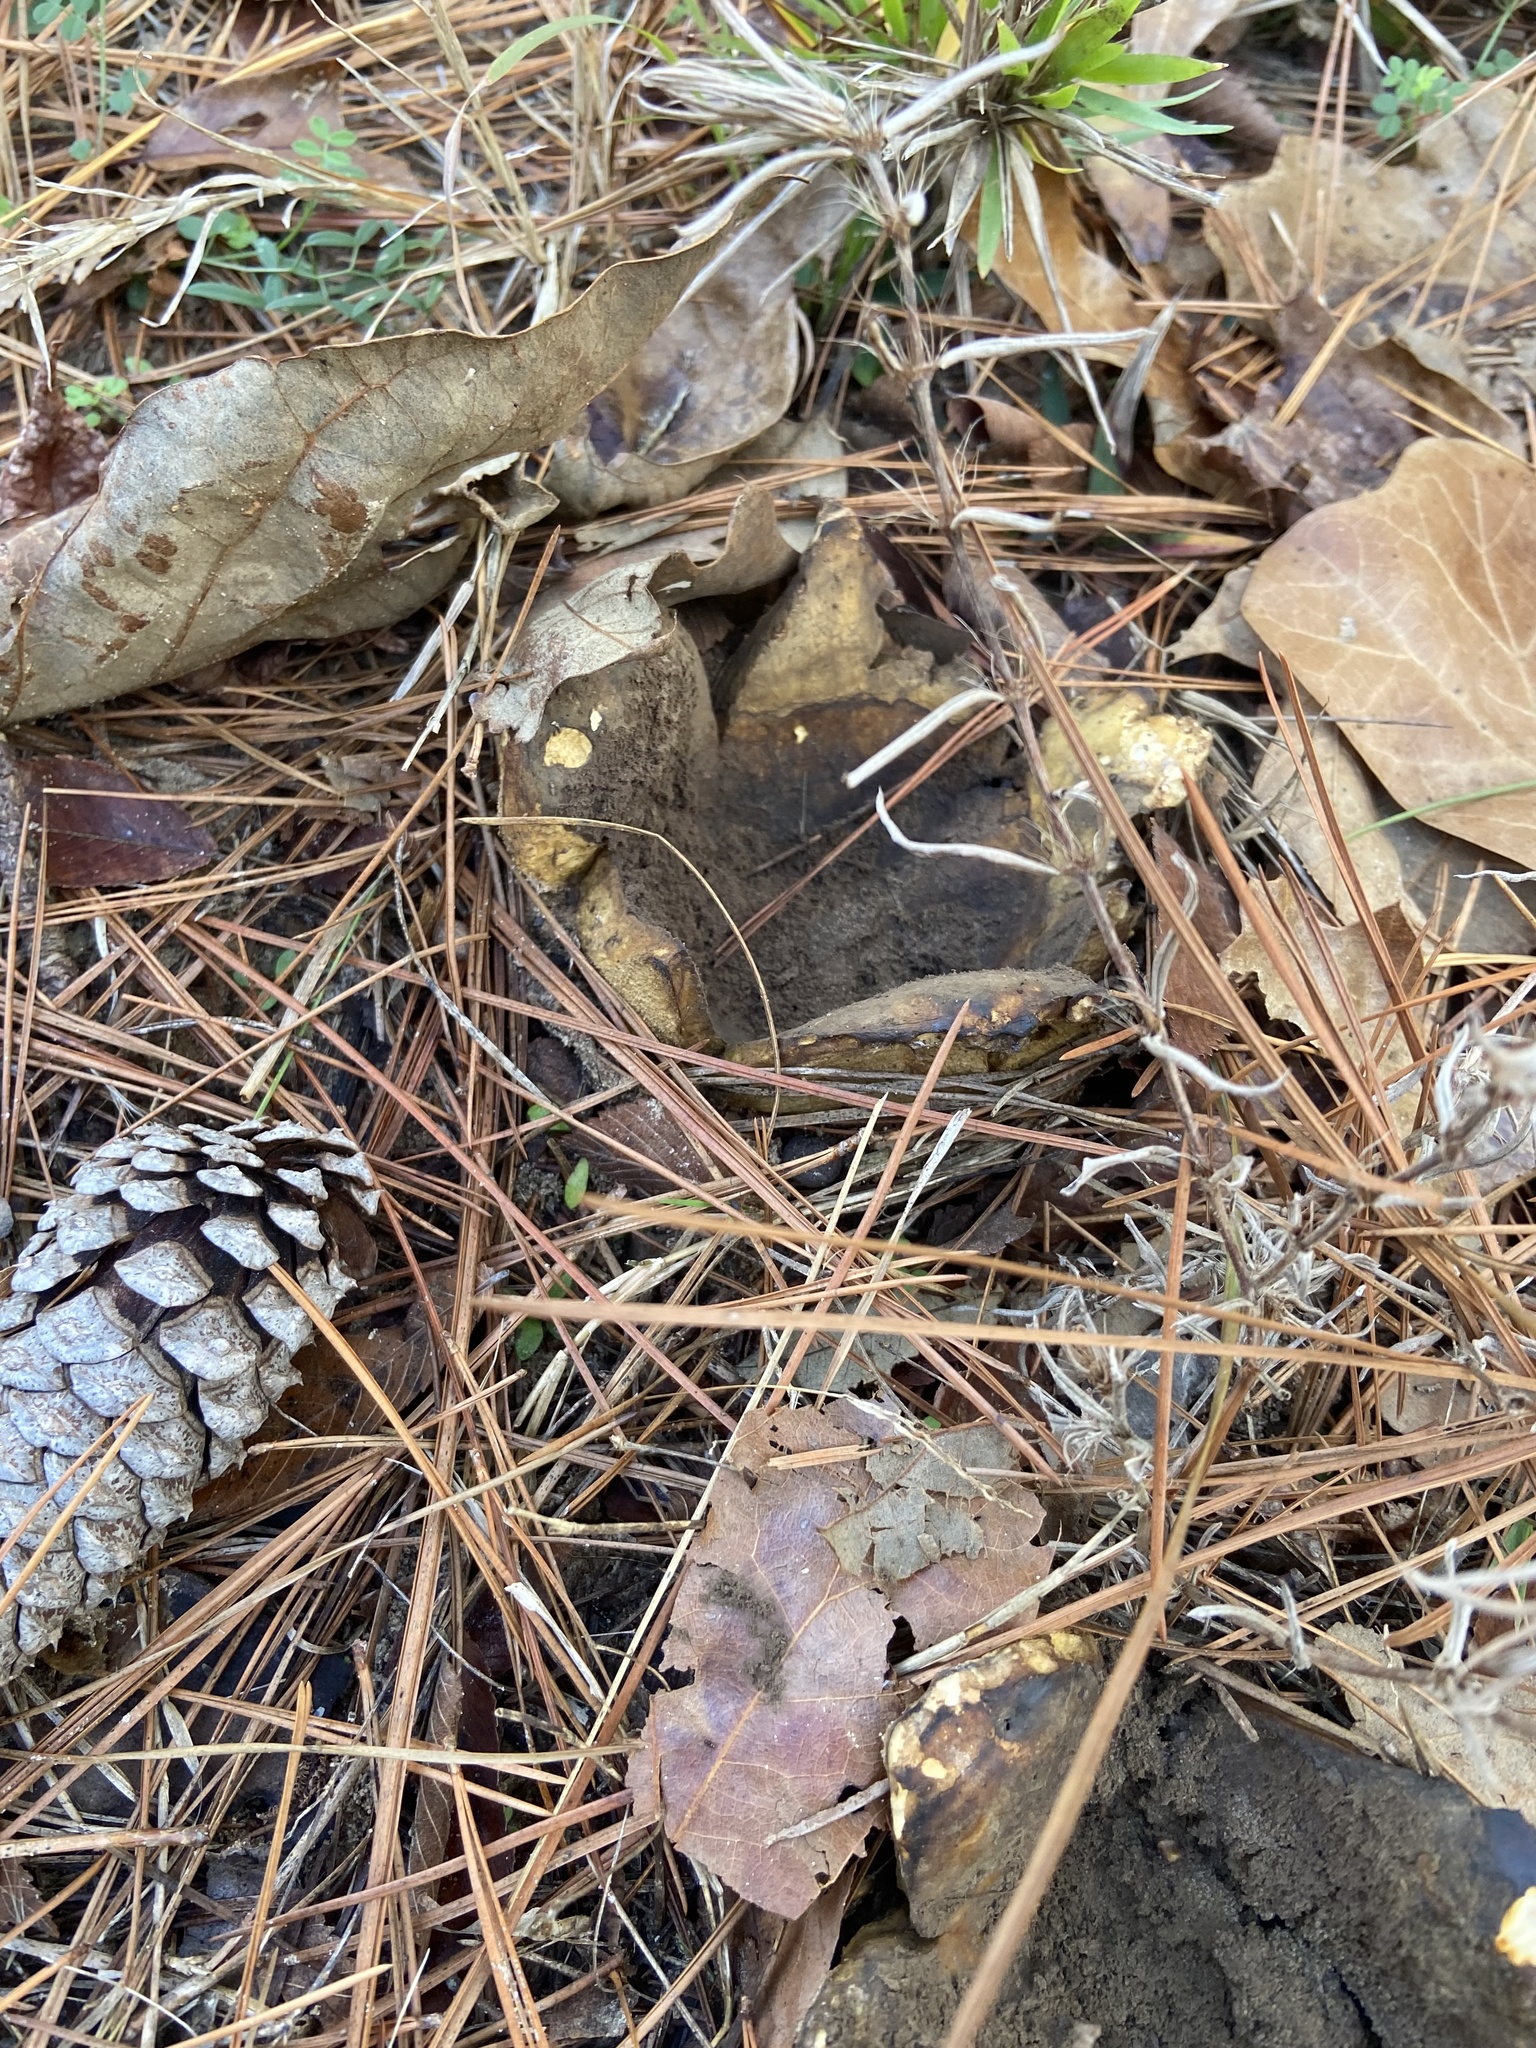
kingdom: Fungi
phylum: Basidiomycota
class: Agaricomycetes
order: Boletales
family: Sclerodermataceae
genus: Scleroderma
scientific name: Scleroderma polyrhizum
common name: Many-rooted earthball
